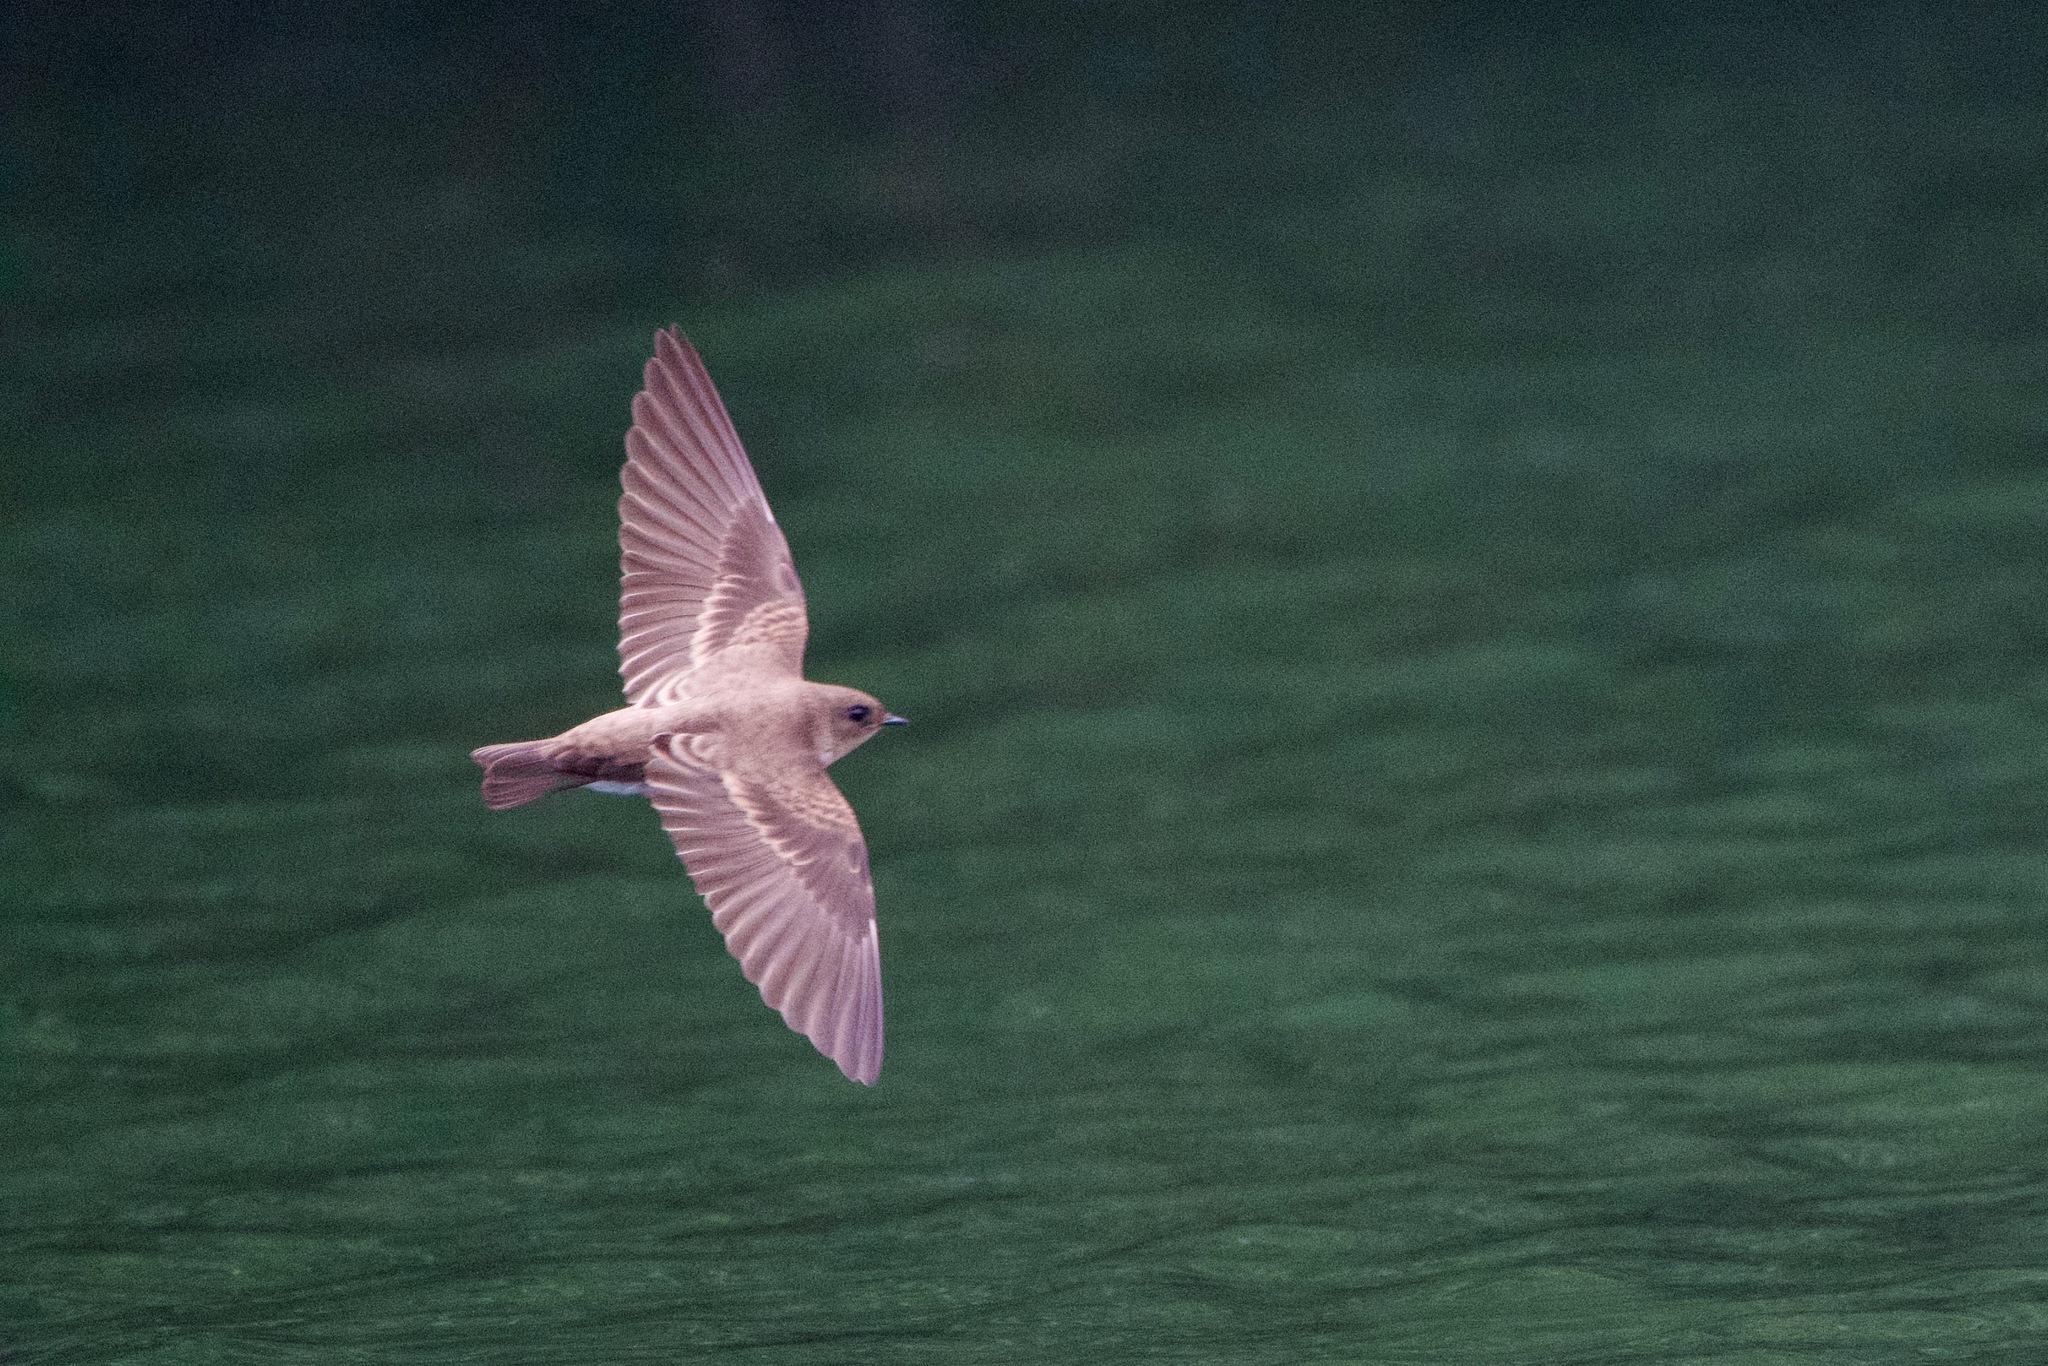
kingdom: Animalia
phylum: Chordata
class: Aves
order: Passeriformes
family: Hirundinidae
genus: Stelgidopteryx
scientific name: Stelgidopteryx serripennis
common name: Northern rough-winged swallow
